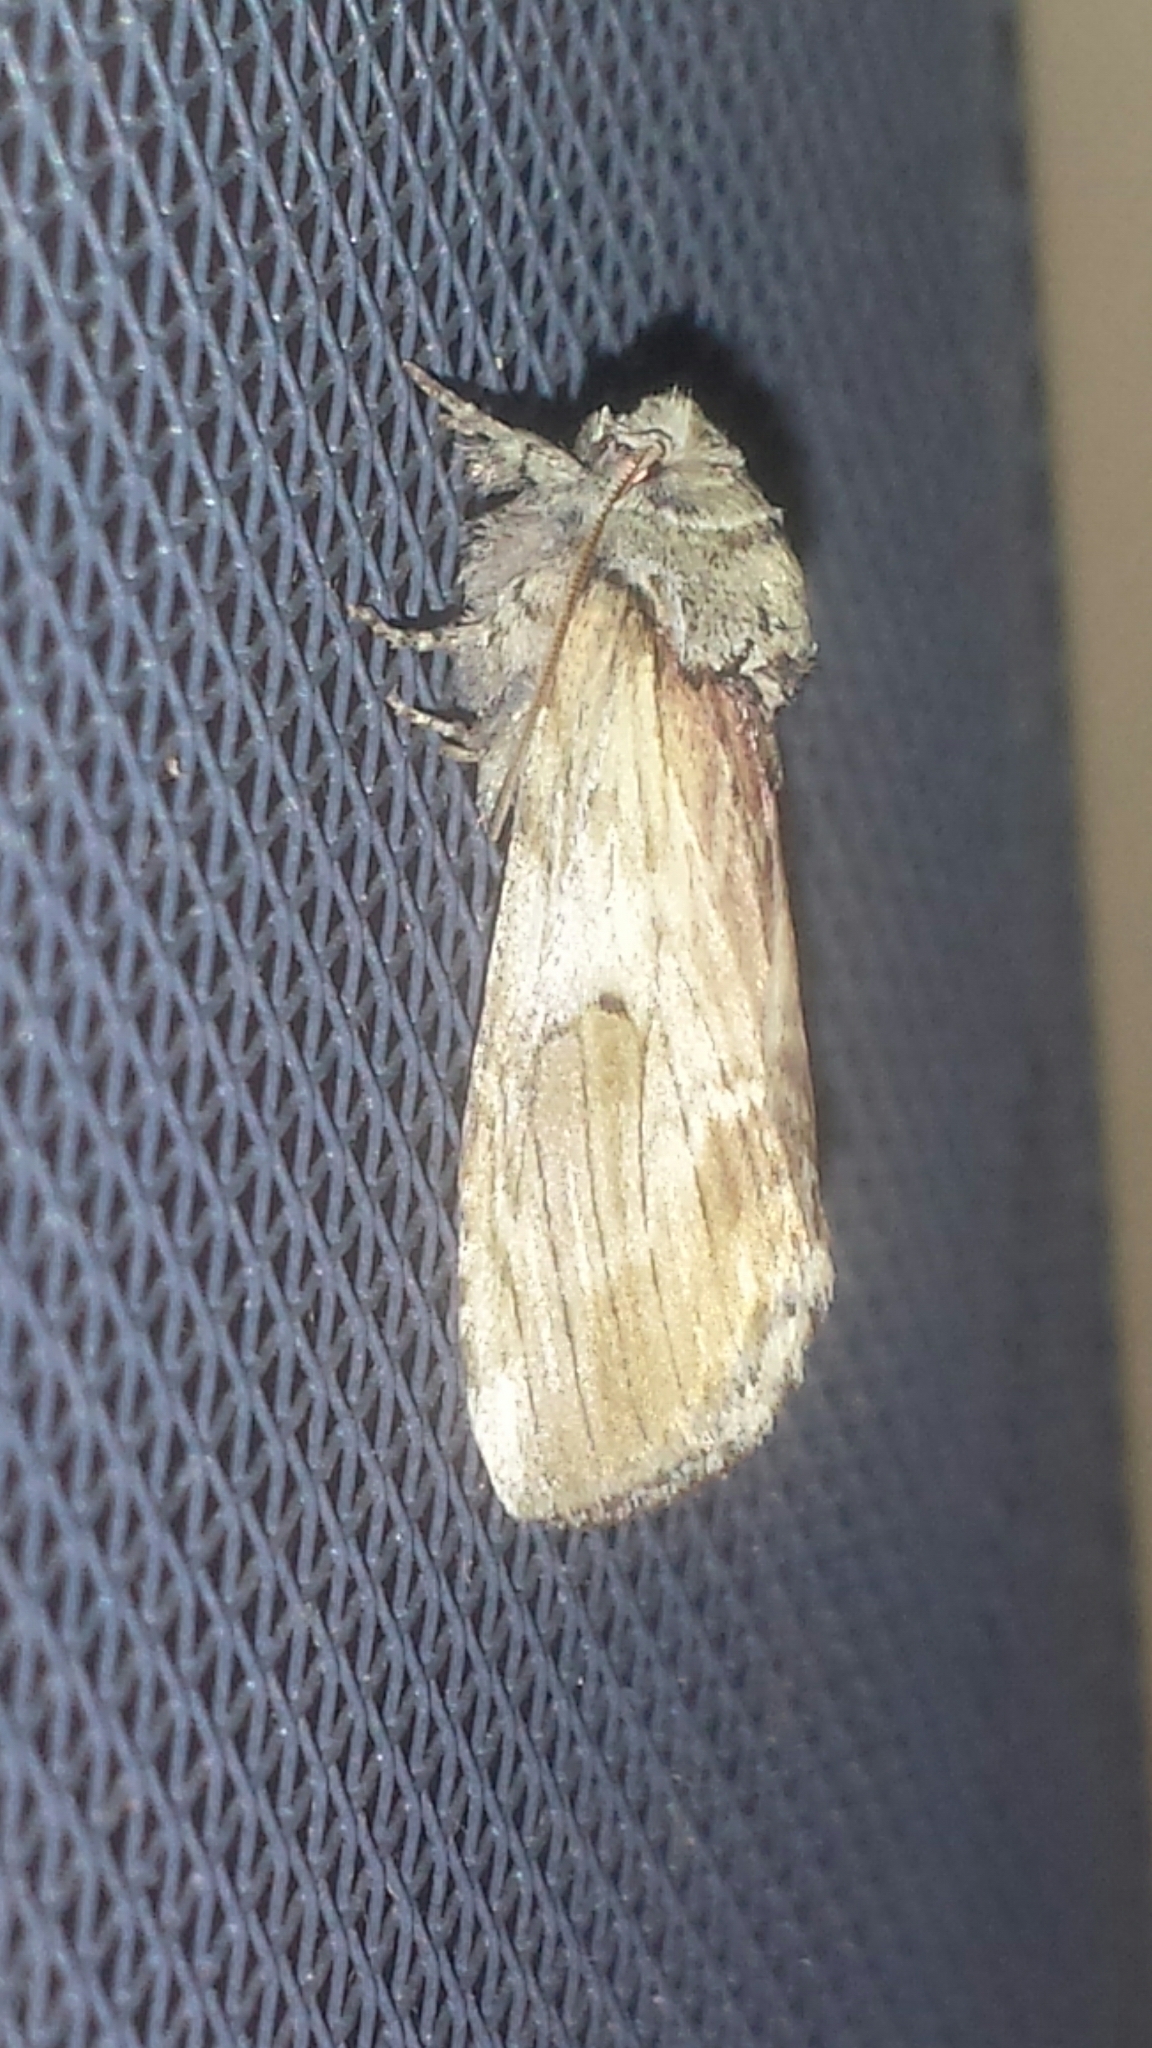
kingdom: Animalia
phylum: Arthropoda
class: Insecta
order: Lepidoptera
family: Notodontidae
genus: Schizura
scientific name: Schizura
